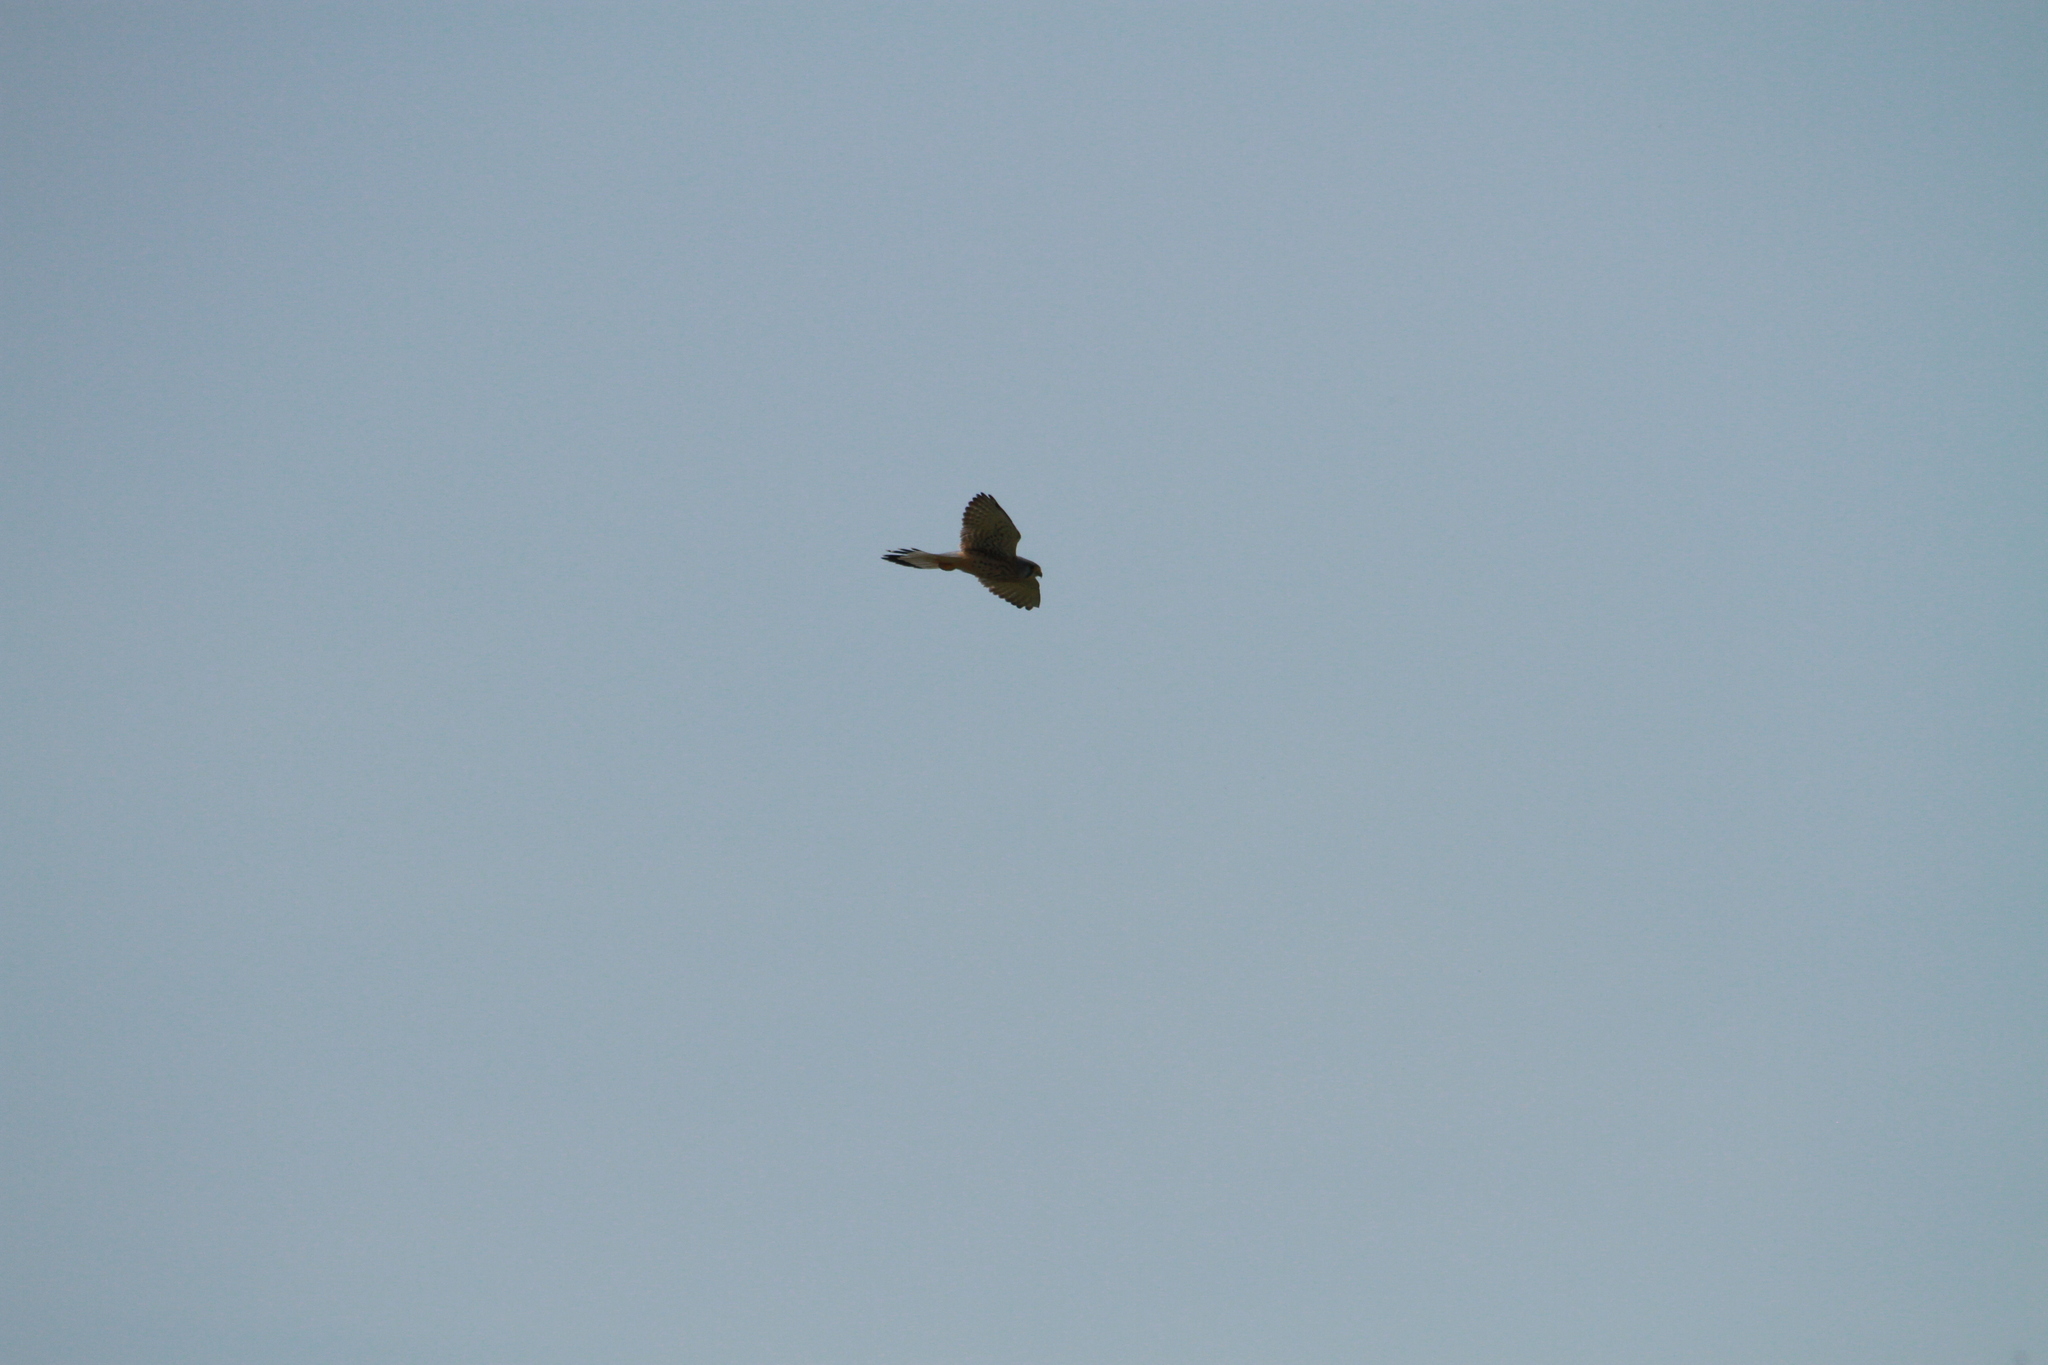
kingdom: Animalia
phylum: Chordata
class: Aves
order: Falconiformes
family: Falconidae
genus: Falco
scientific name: Falco tinnunculus
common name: Common kestrel
